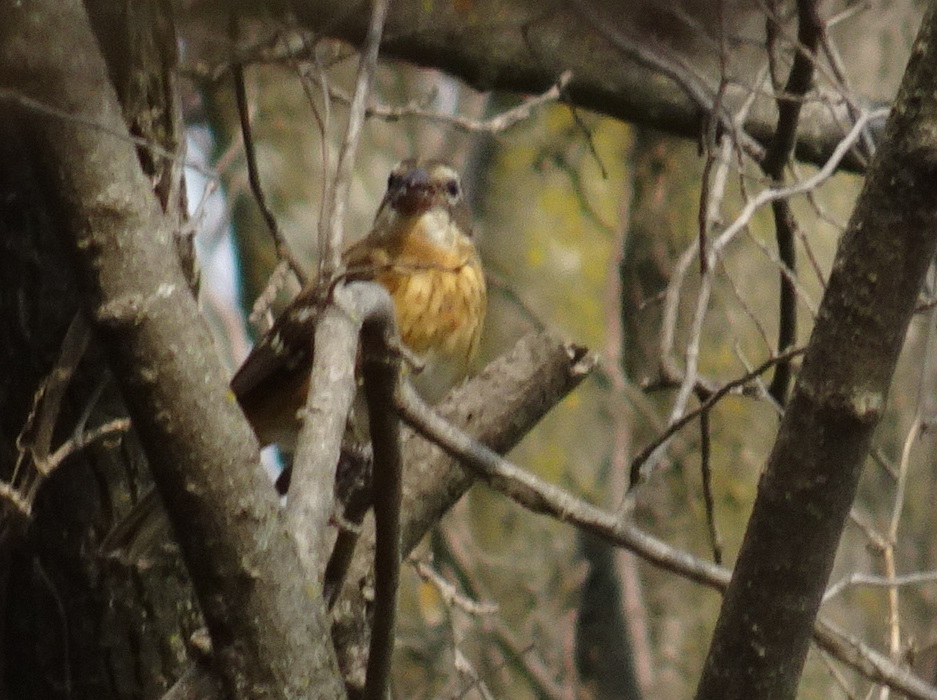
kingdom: Animalia
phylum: Chordata
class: Aves
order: Passeriformes
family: Cardinalidae
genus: Pheucticus
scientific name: Pheucticus ludovicianus
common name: Rose-breasted grosbeak
